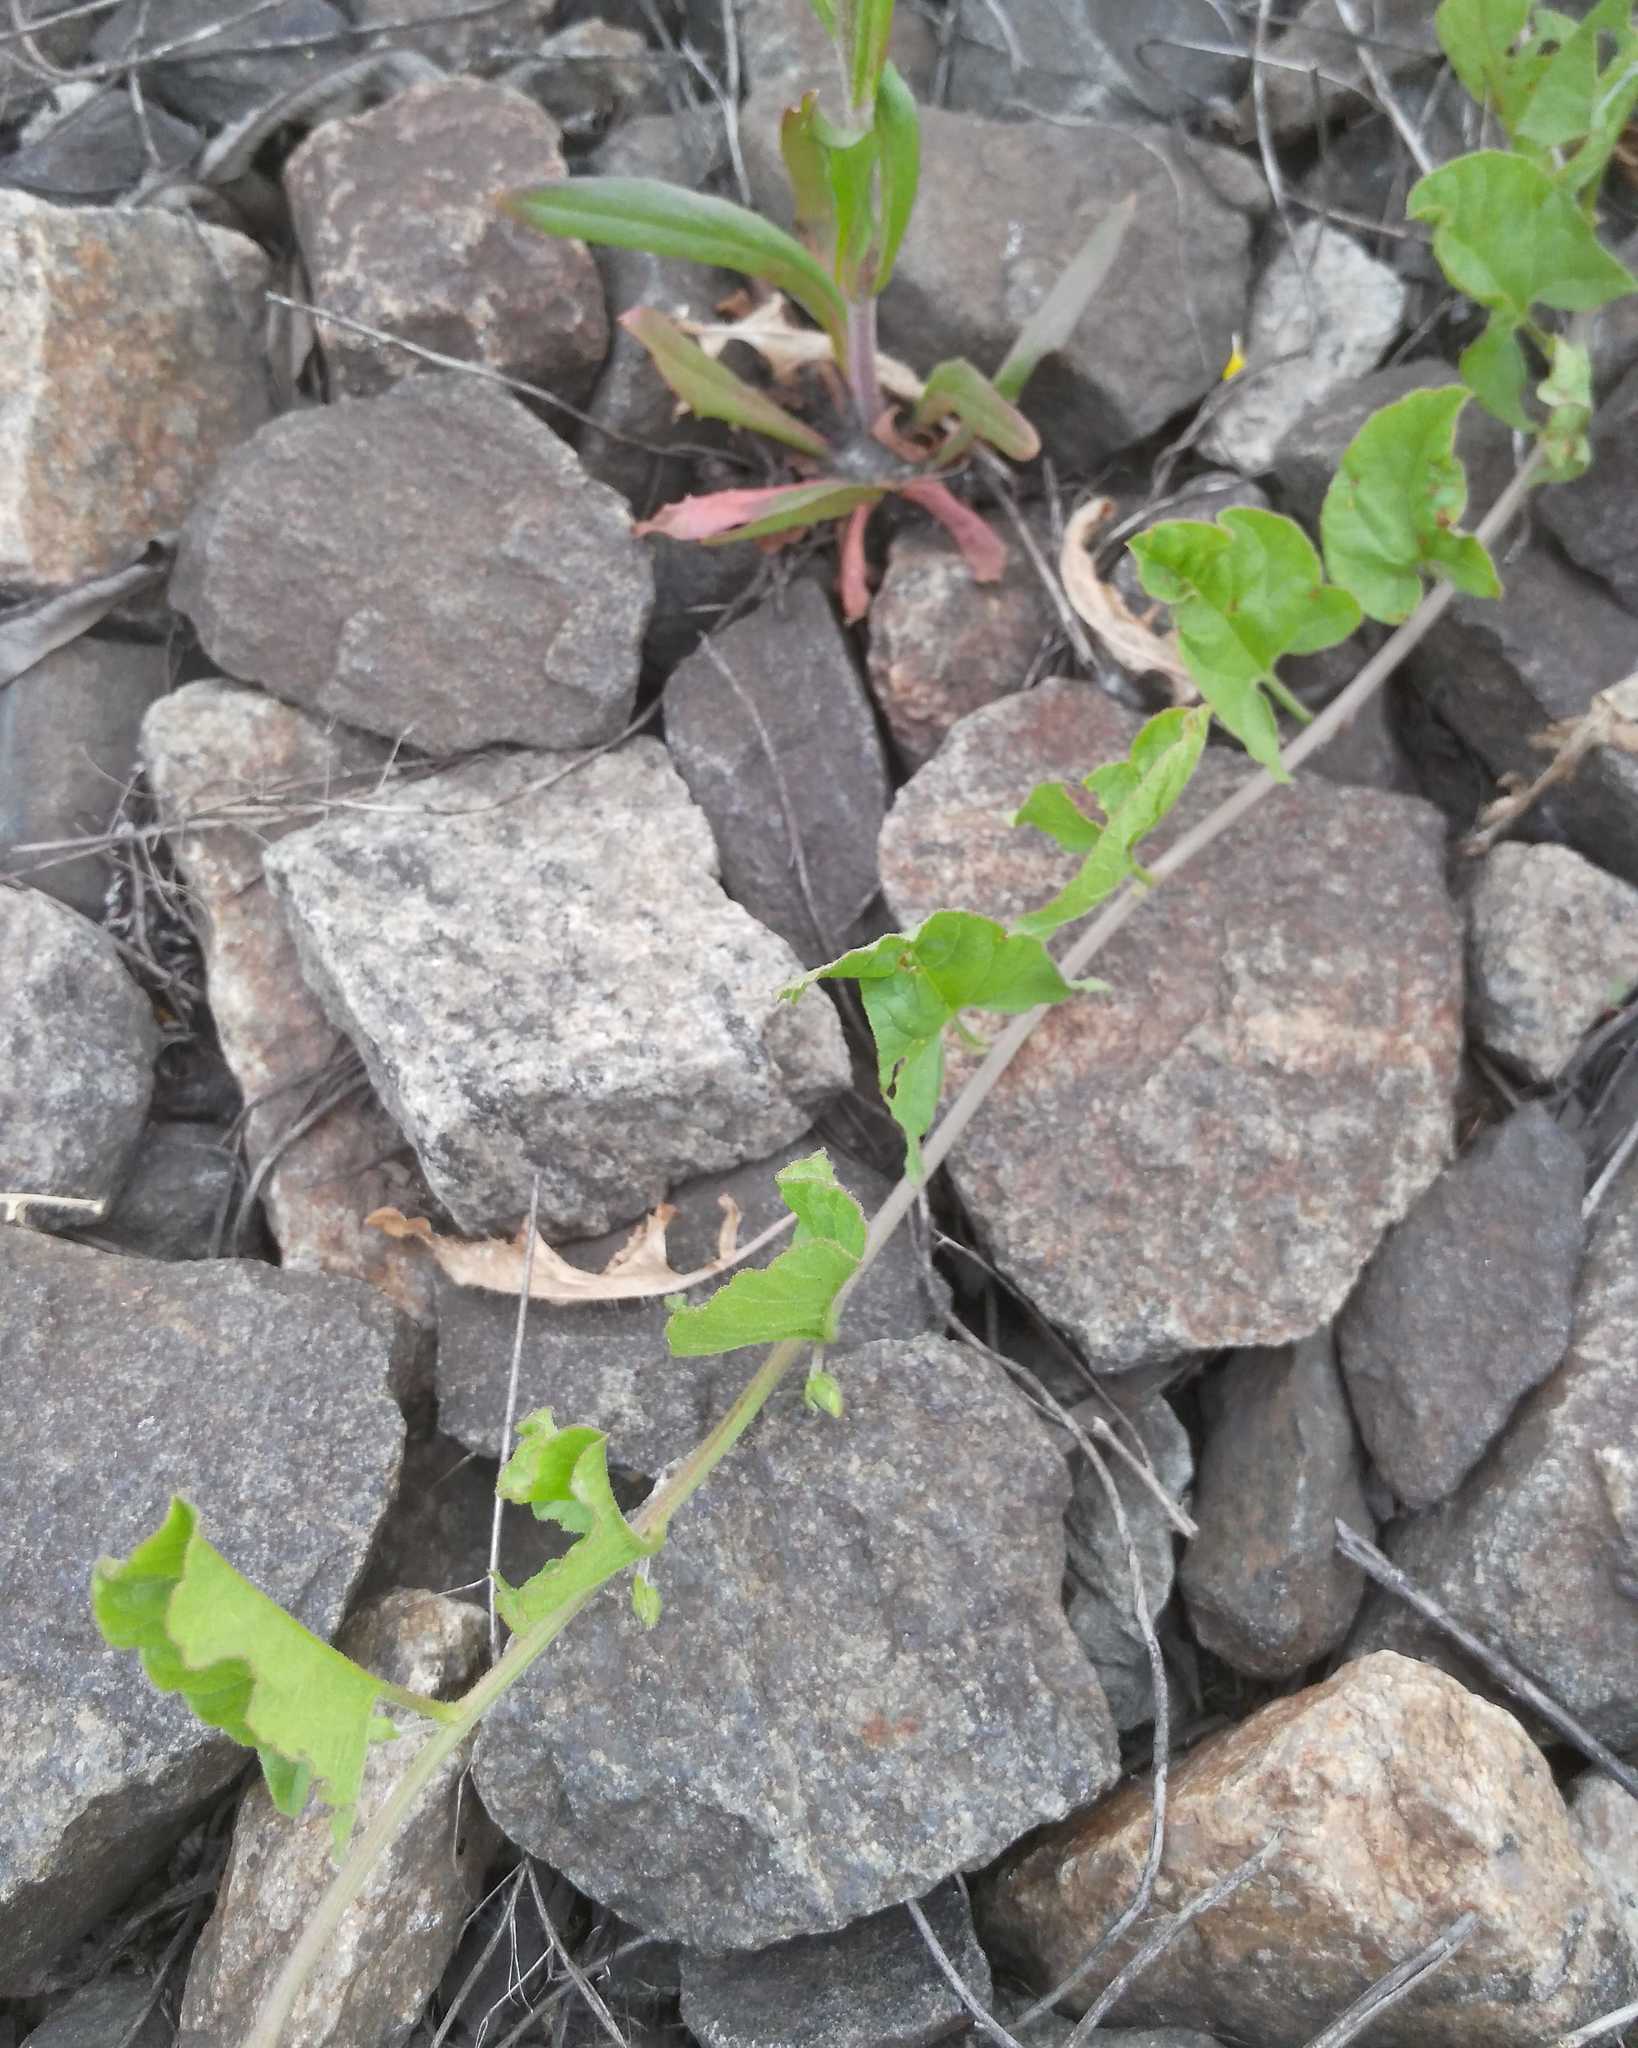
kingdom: Plantae
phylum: Tracheophyta
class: Magnoliopsida
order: Solanales
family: Convolvulaceae
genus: Convolvulus
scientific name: Convolvulus arvensis
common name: Field bindweed
